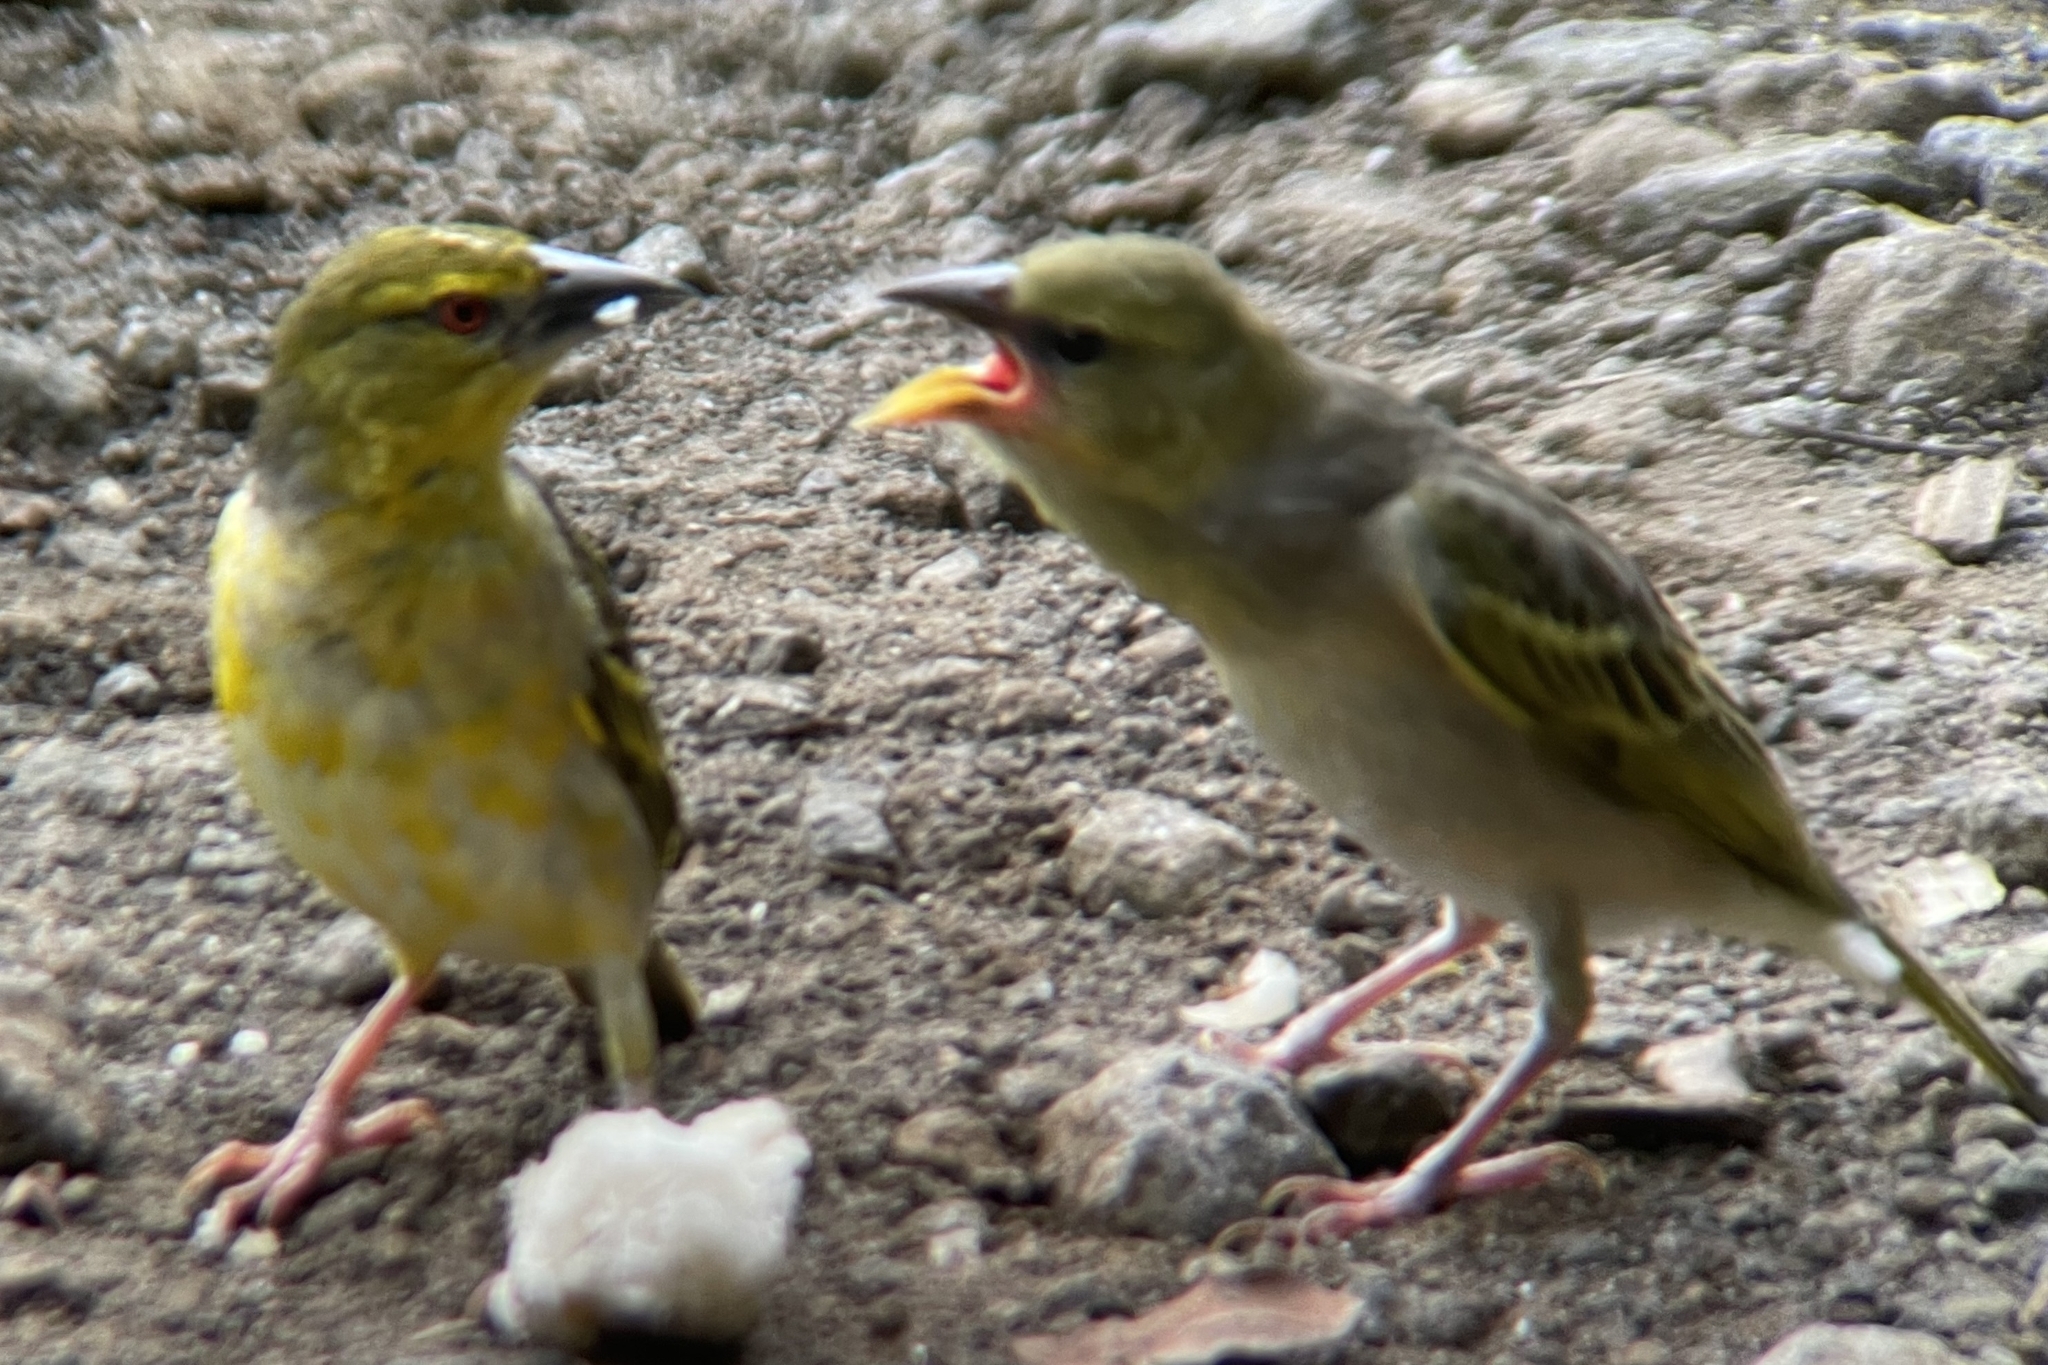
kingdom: Animalia
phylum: Chordata
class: Aves
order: Passeriformes
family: Ploceidae
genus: Ploceus
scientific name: Ploceus cucullatus
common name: Village weaver
